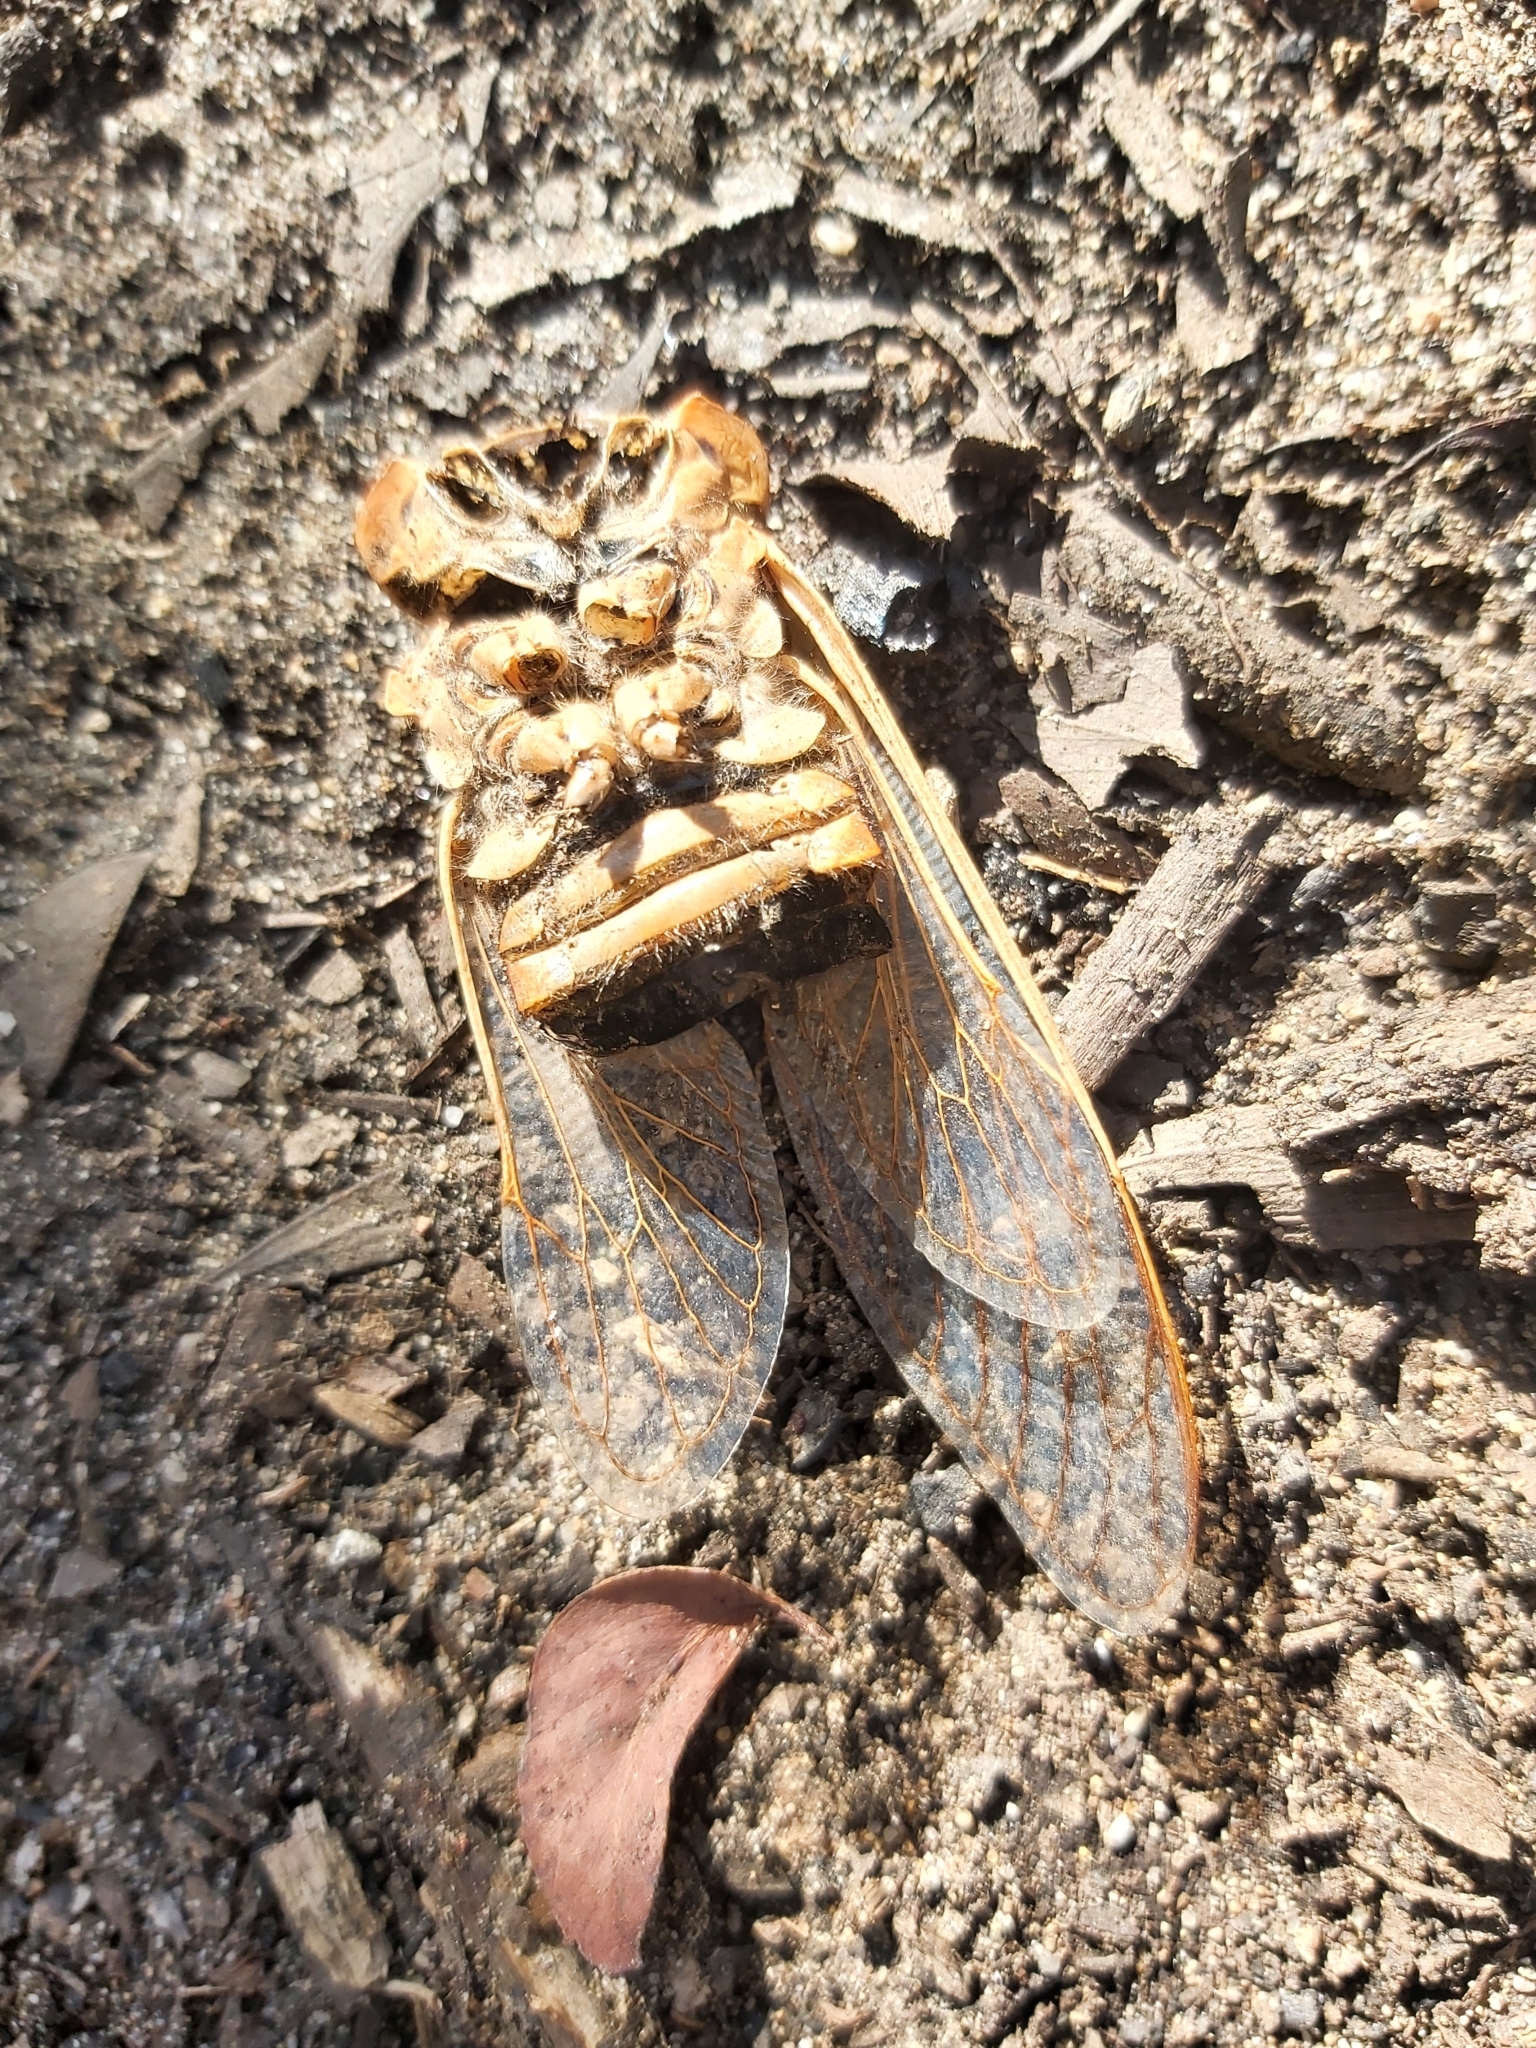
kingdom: Animalia
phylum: Arthropoda
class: Insecta
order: Hemiptera
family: Cicadidae
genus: Cyclochila
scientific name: Cyclochila australasiae
